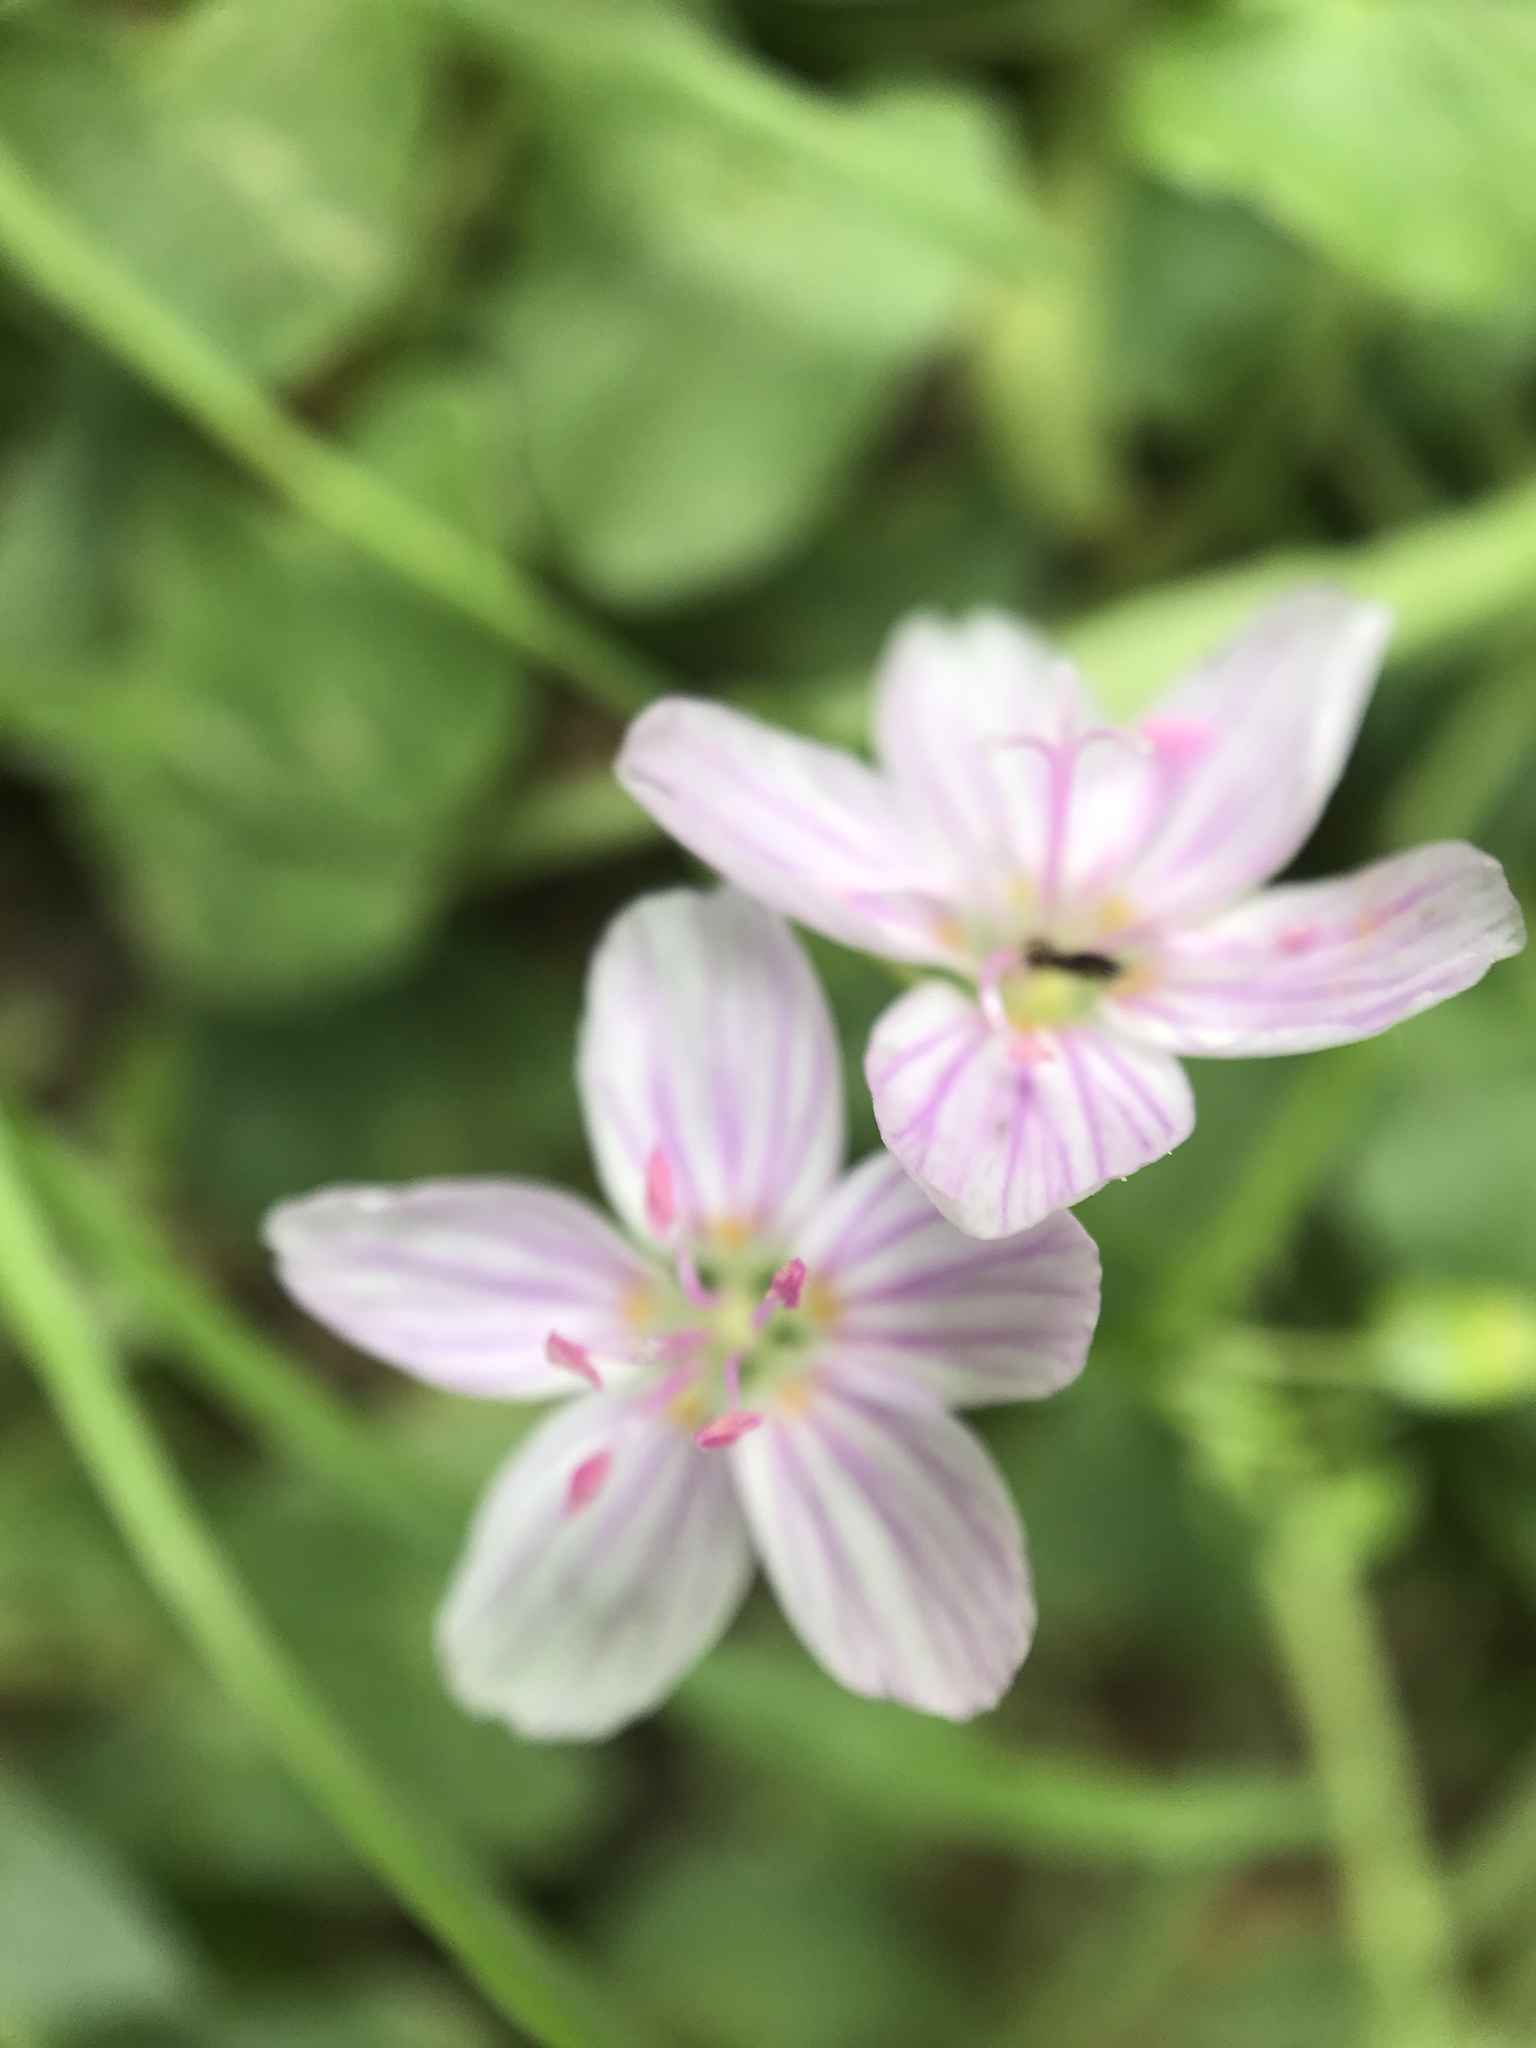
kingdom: Plantae
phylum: Tracheophyta
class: Magnoliopsida
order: Caryophyllales
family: Montiaceae
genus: Claytonia
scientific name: Claytonia virginica
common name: Virginia springbeauty
